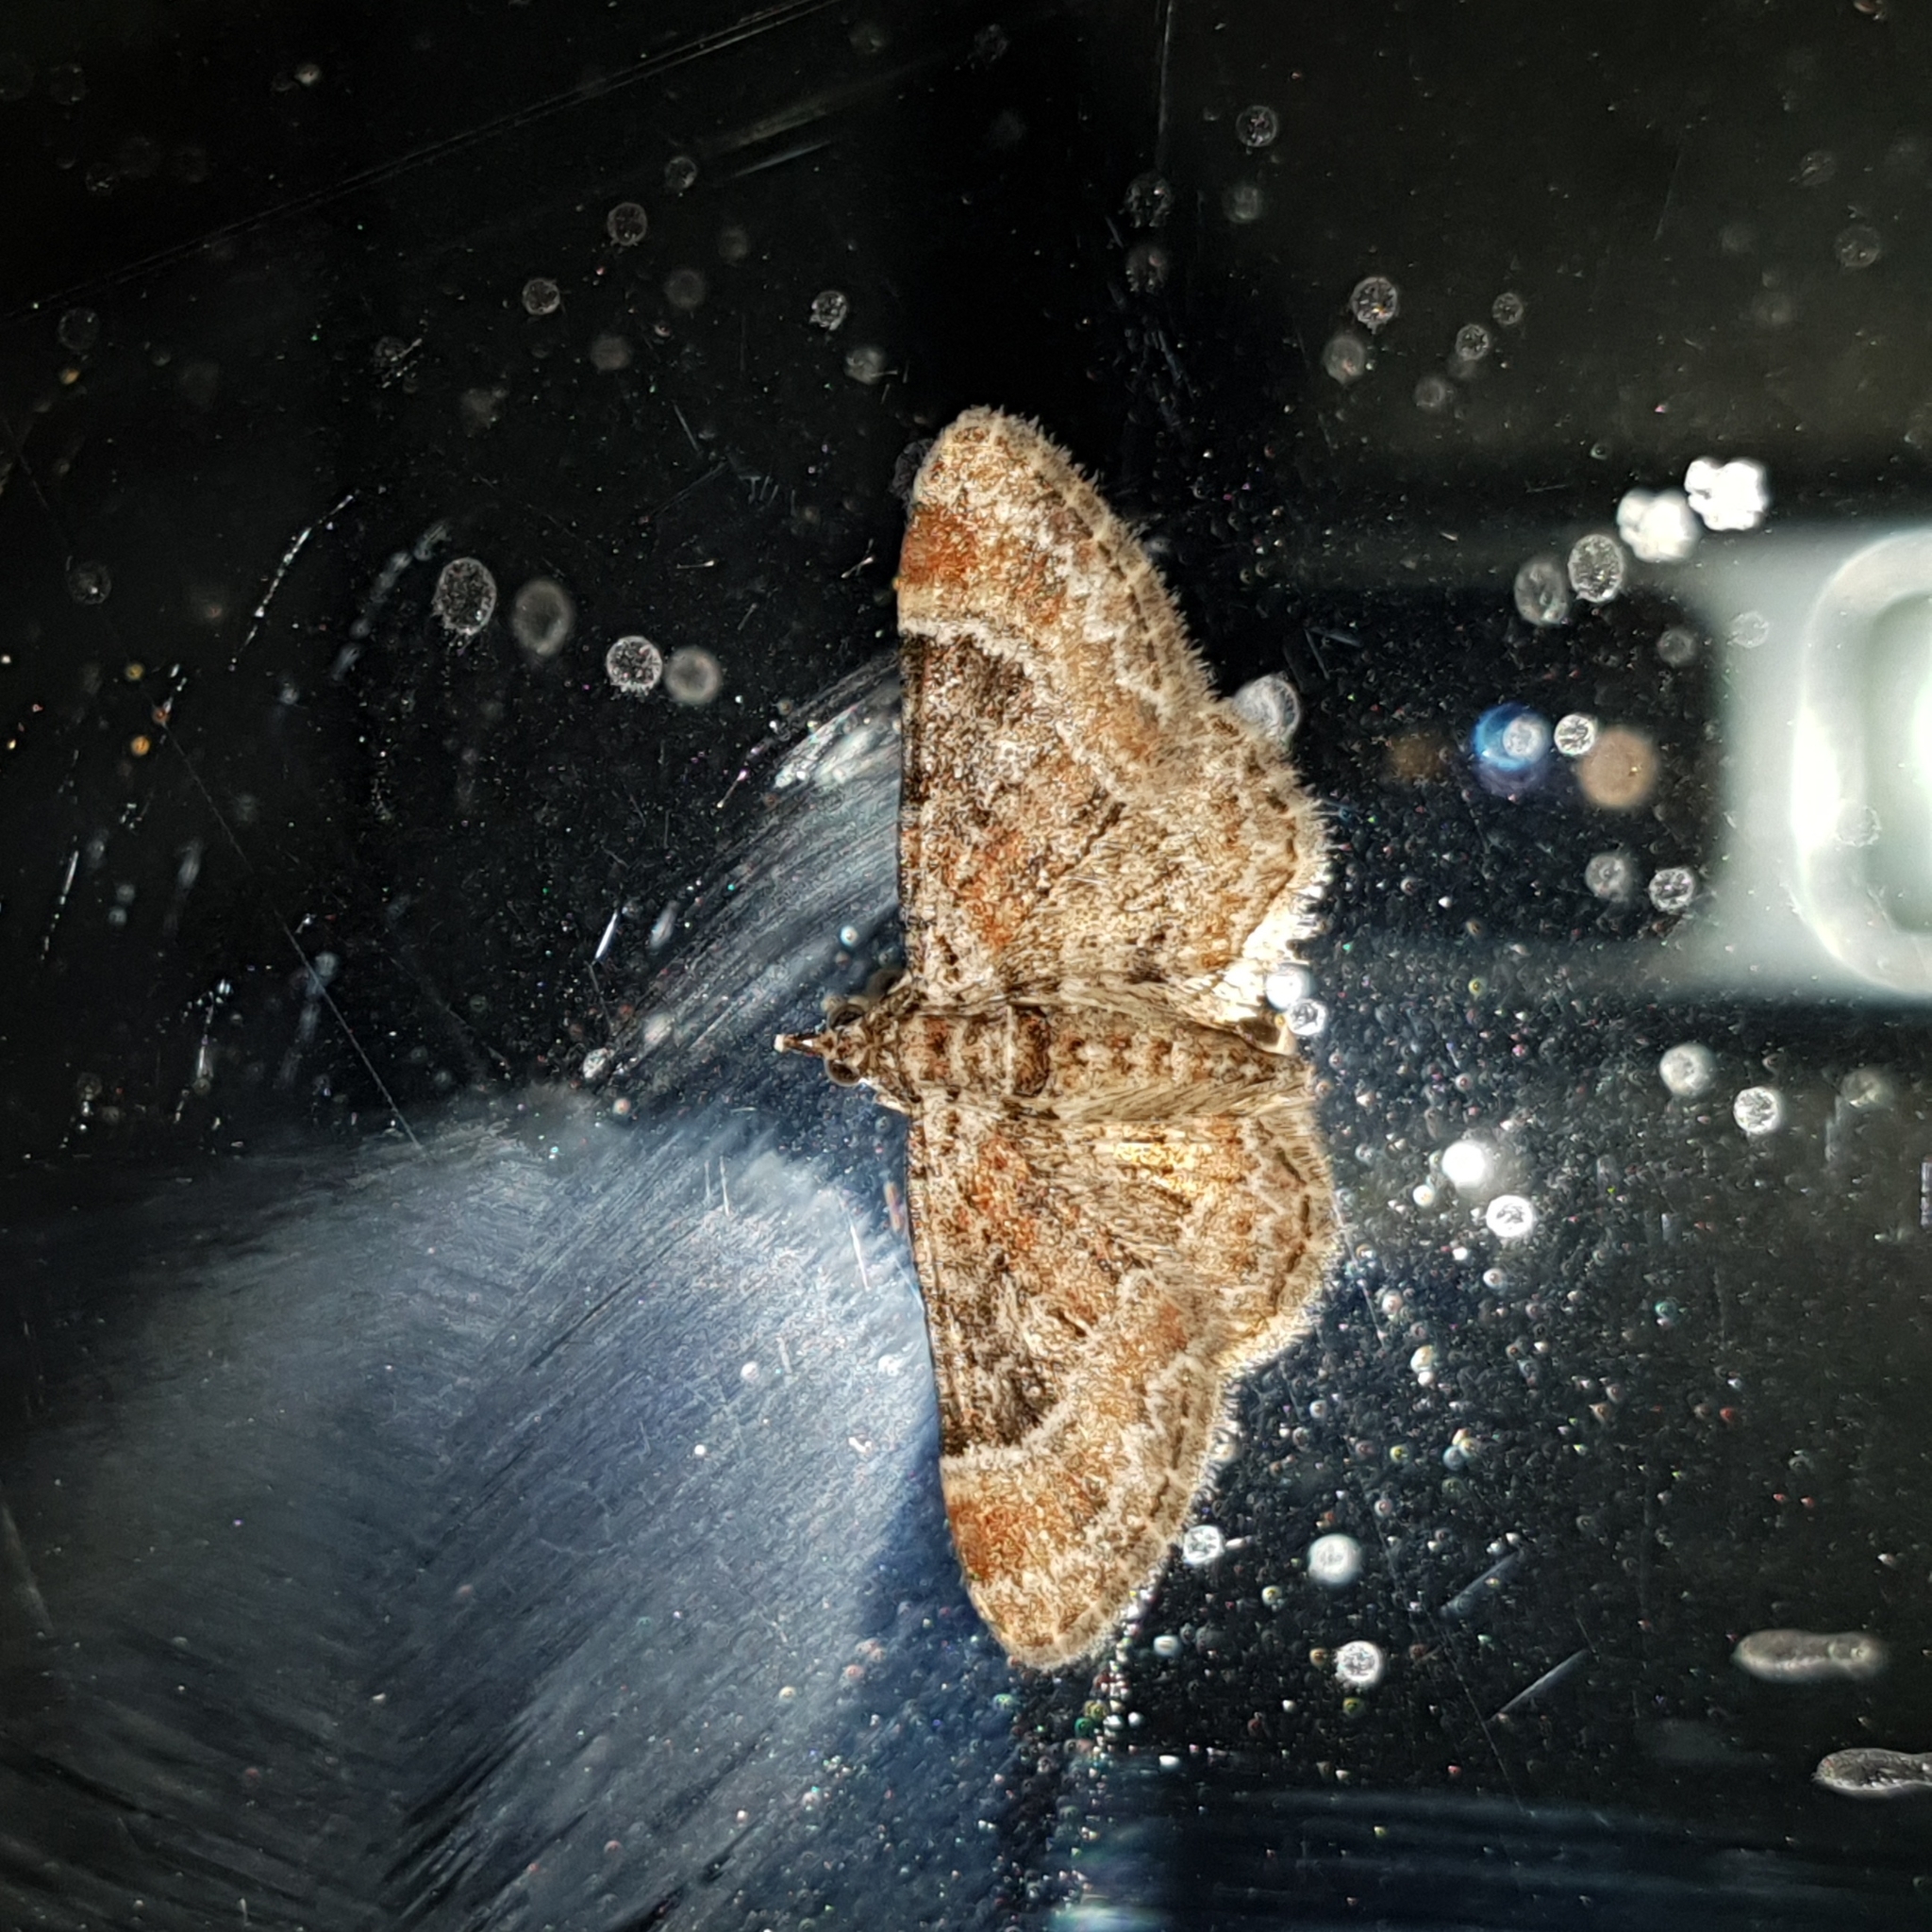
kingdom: Animalia
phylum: Arthropoda
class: Insecta
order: Lepidoptera
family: Geometridae
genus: Gymnoscelis
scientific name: Gymnoscelis rufifasciata
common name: Double-striped pug
